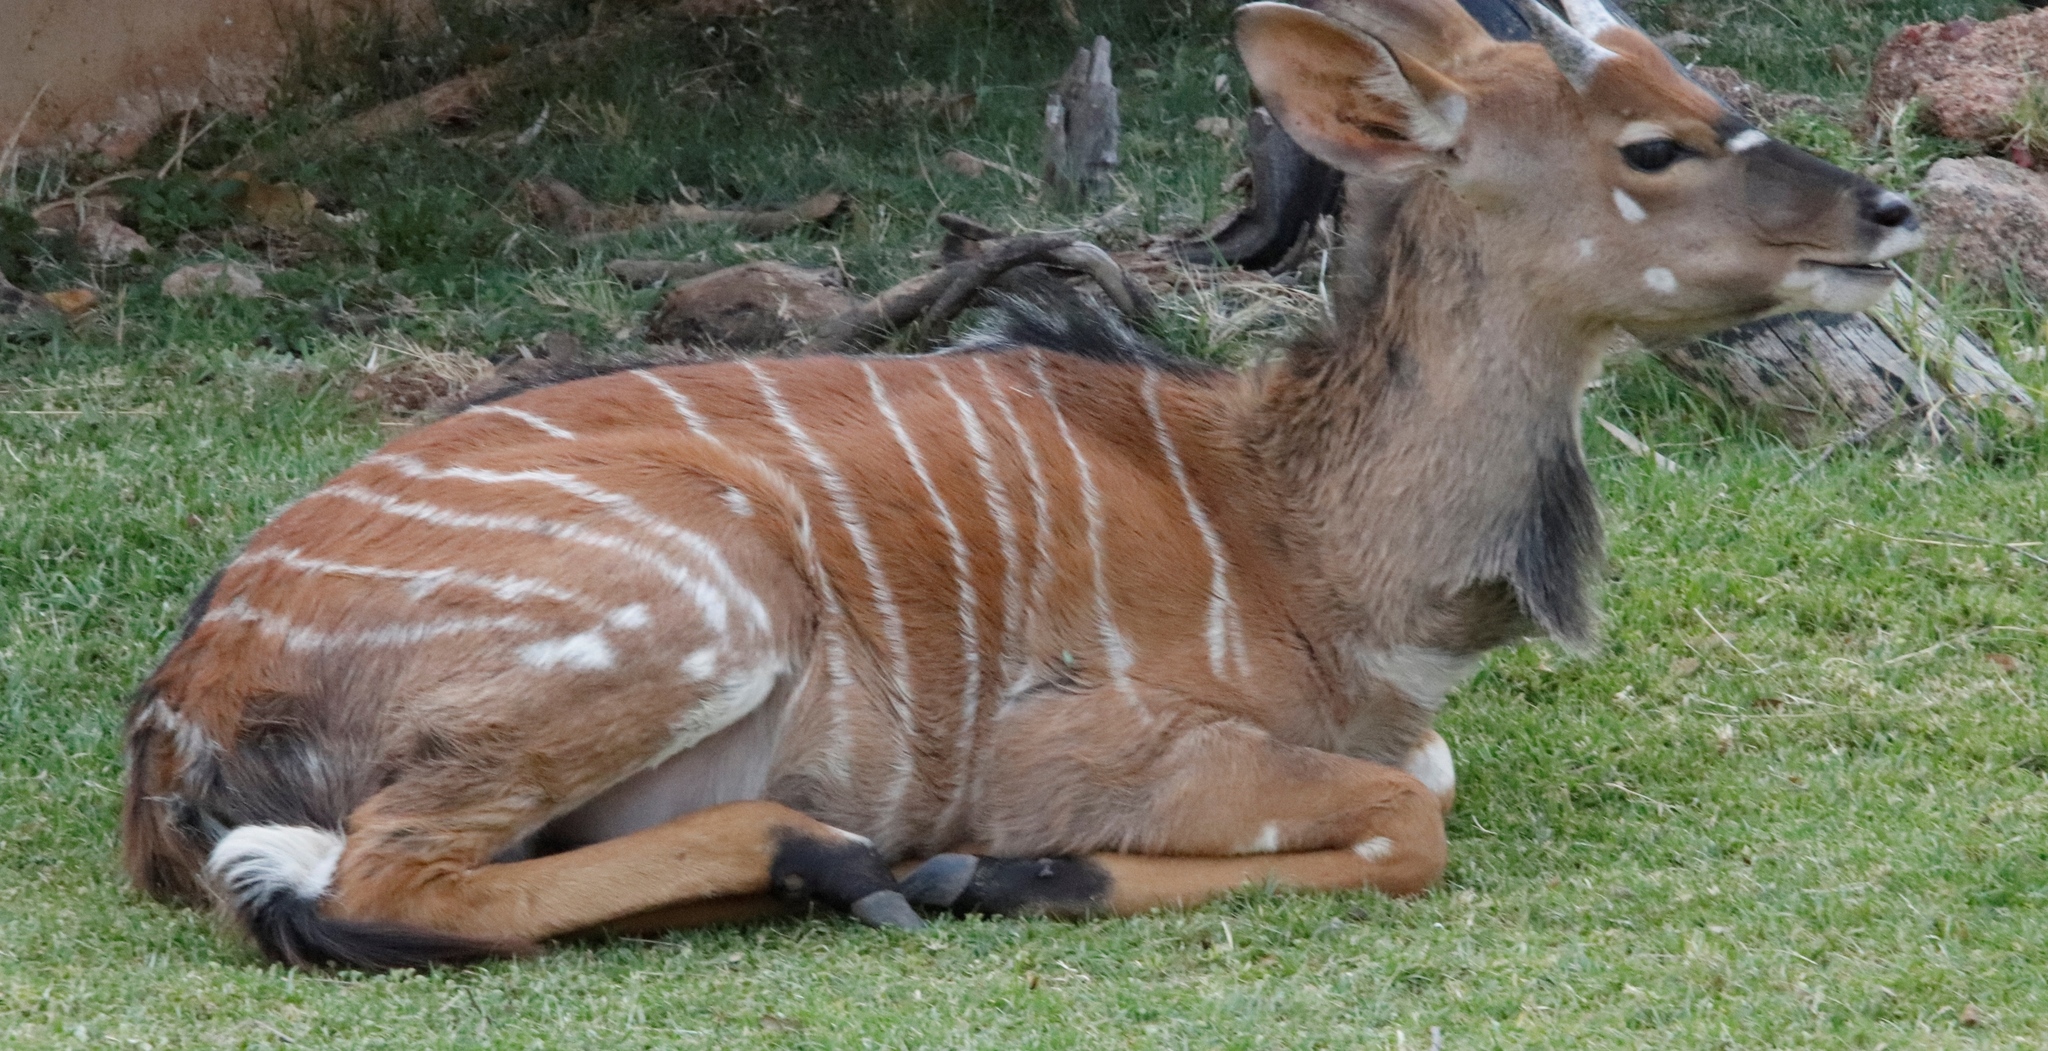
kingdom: Animalia
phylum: Chordata
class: Mammalia
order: Artiodactyla
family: Bovidae
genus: Tragelaphus
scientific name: Tragelaphus angasii
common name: Nyala
